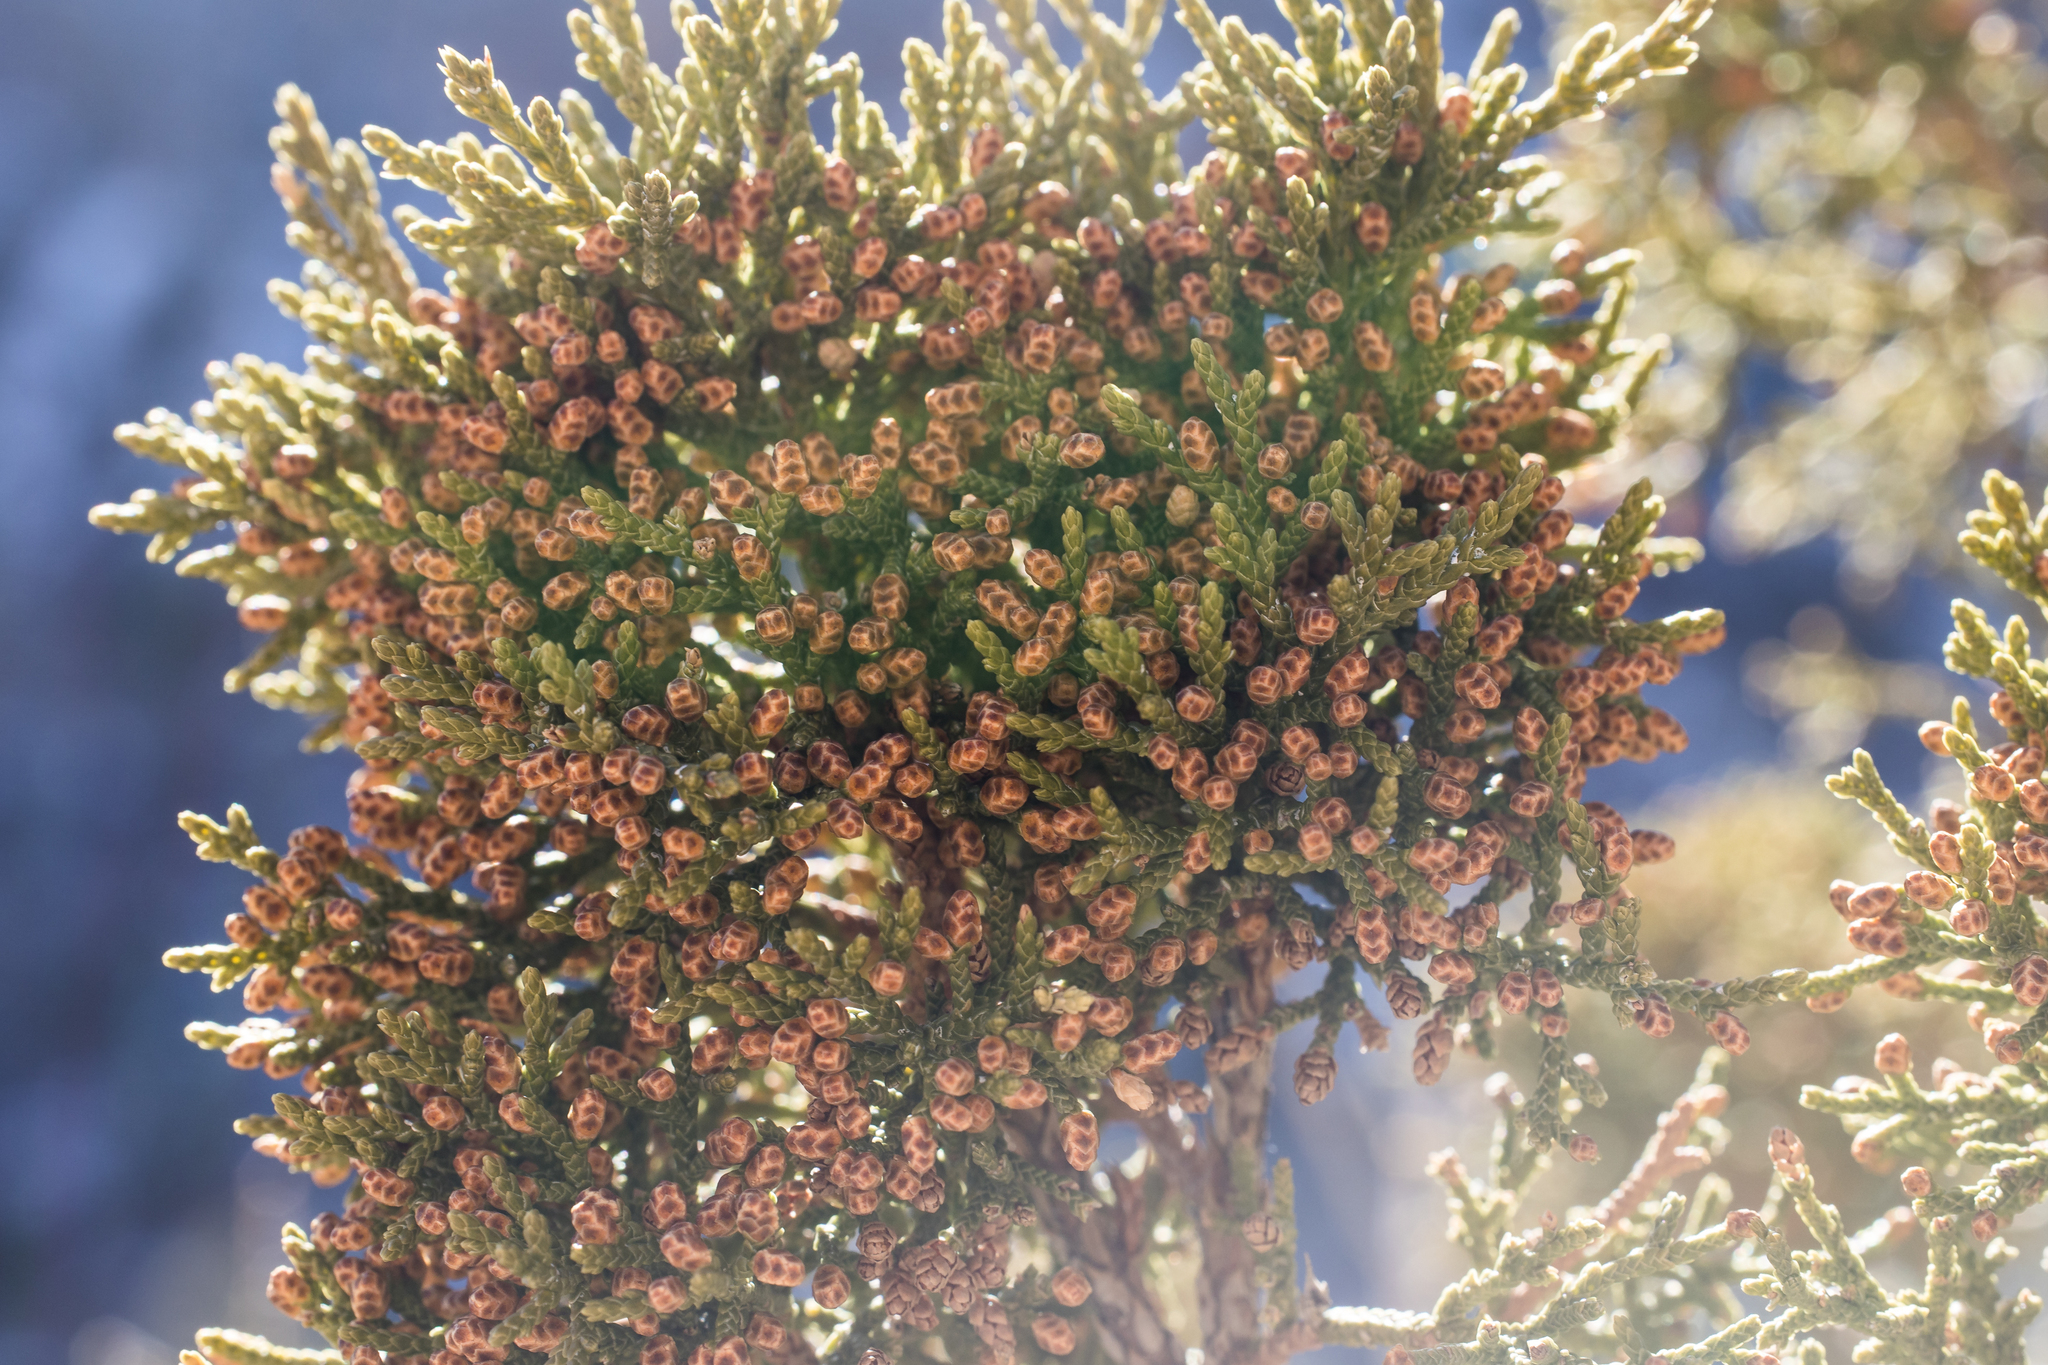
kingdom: Plantae
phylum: Tracheophyta
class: Pinopsida
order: Pinales
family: Cupressaceae
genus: Juniperus
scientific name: Juniperus monosperma
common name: One-seed juniper
